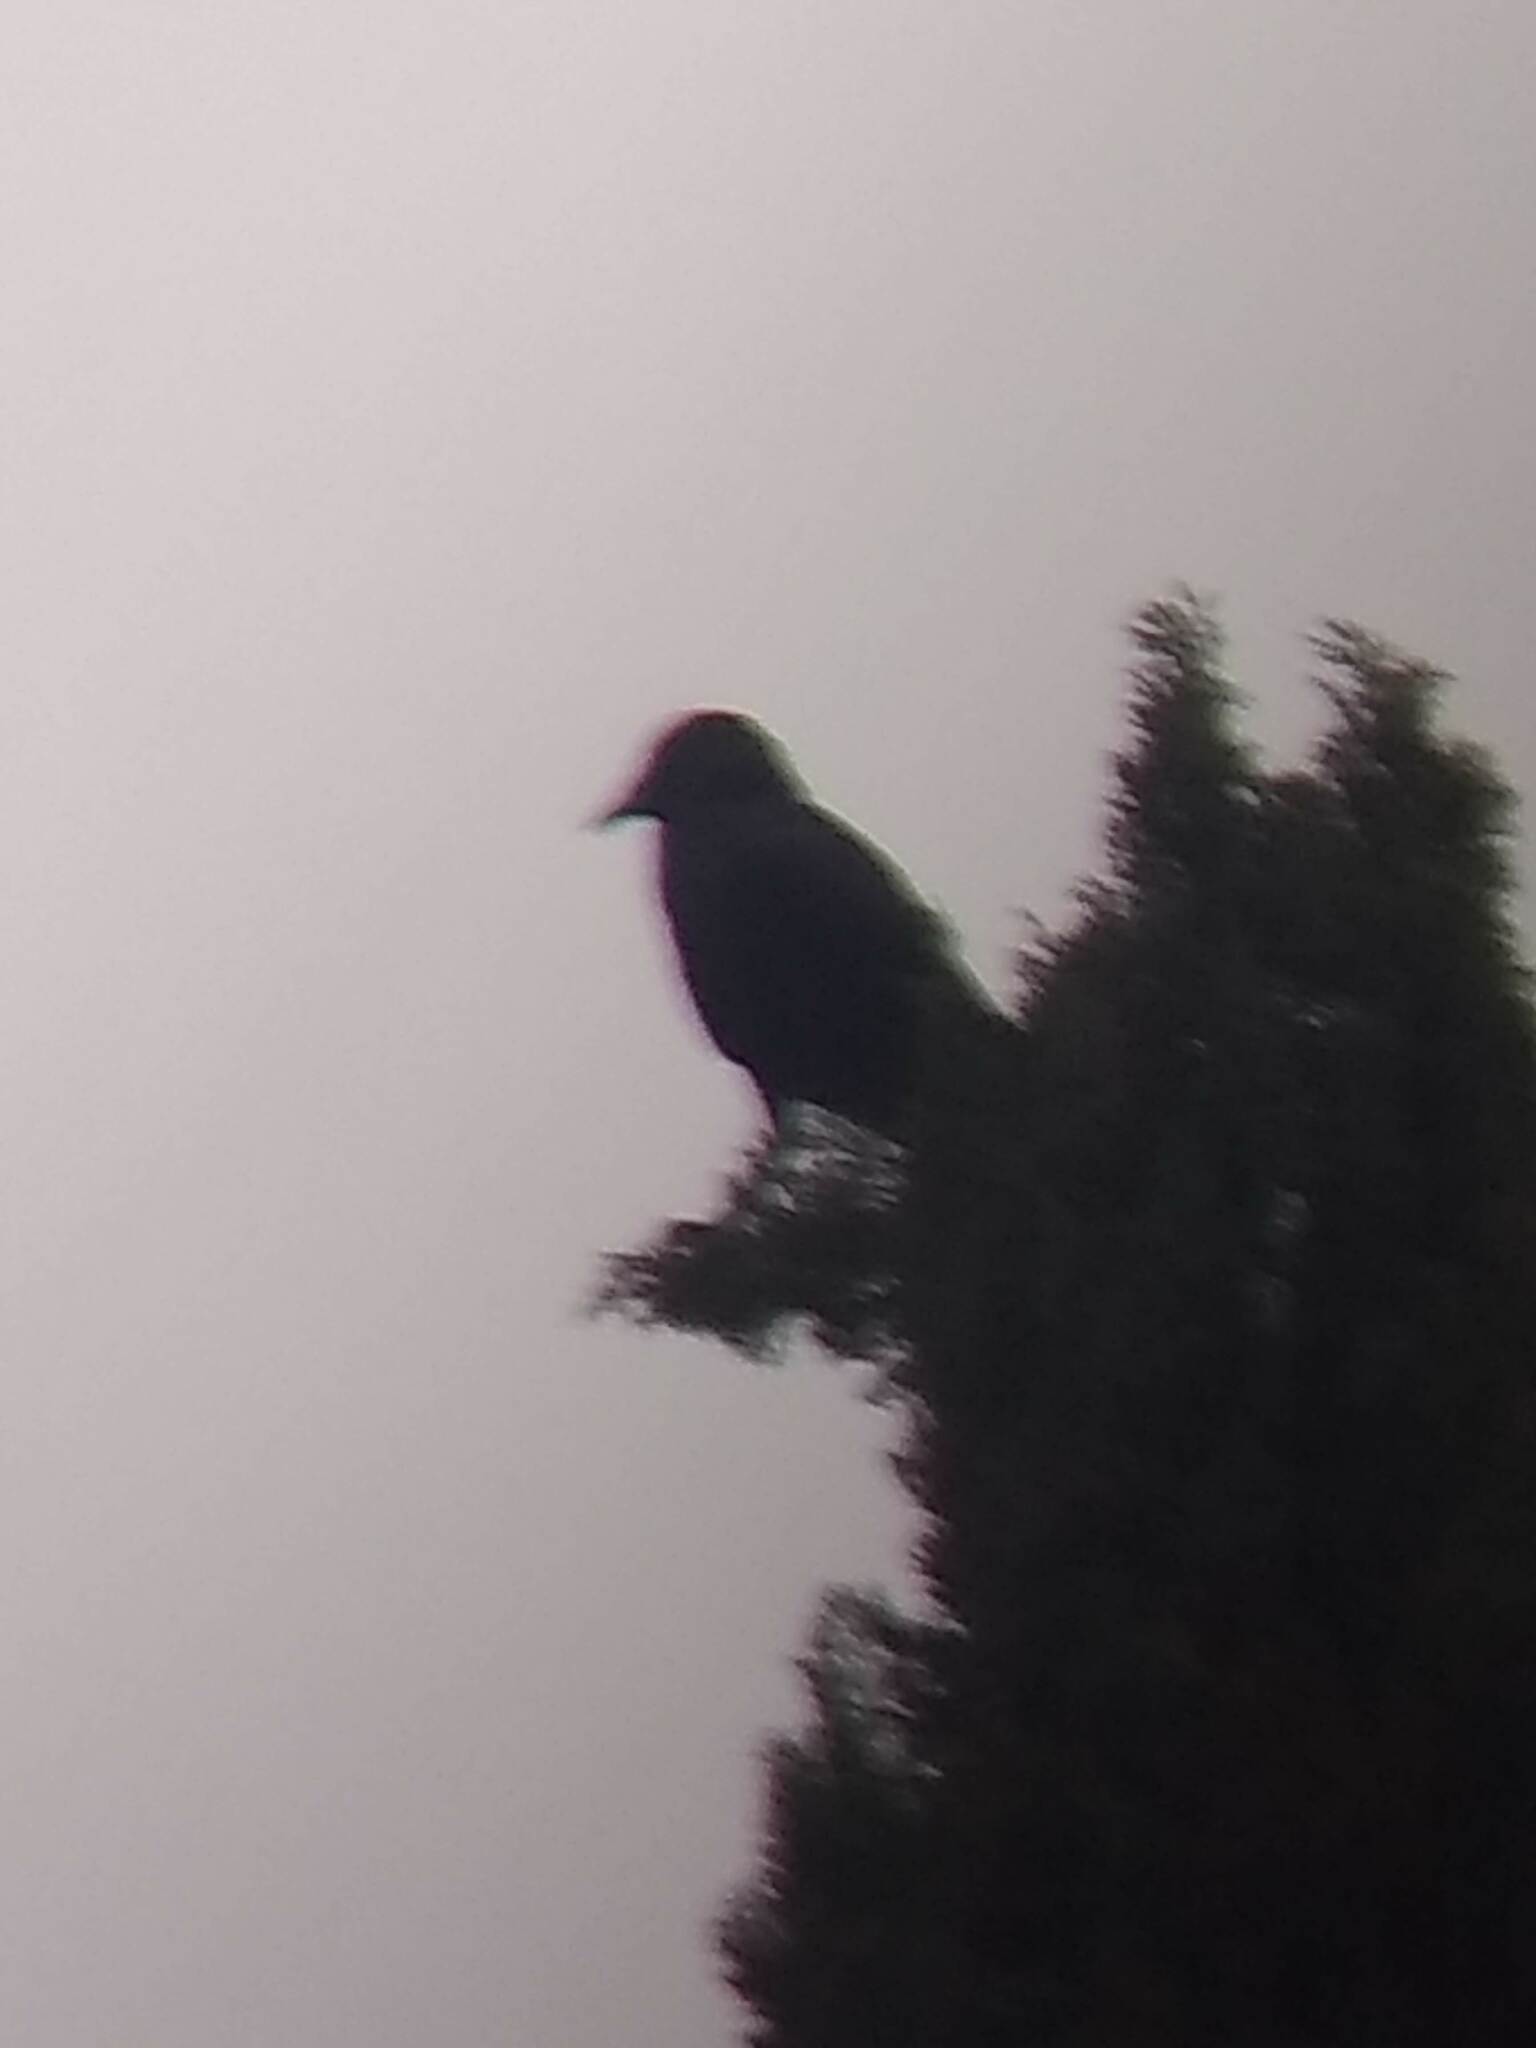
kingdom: Animalia
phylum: Chordata
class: Aves
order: Passeriformes
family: Corvidae
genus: Corvus
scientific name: Corvus brachyrhynchos
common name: American crow
